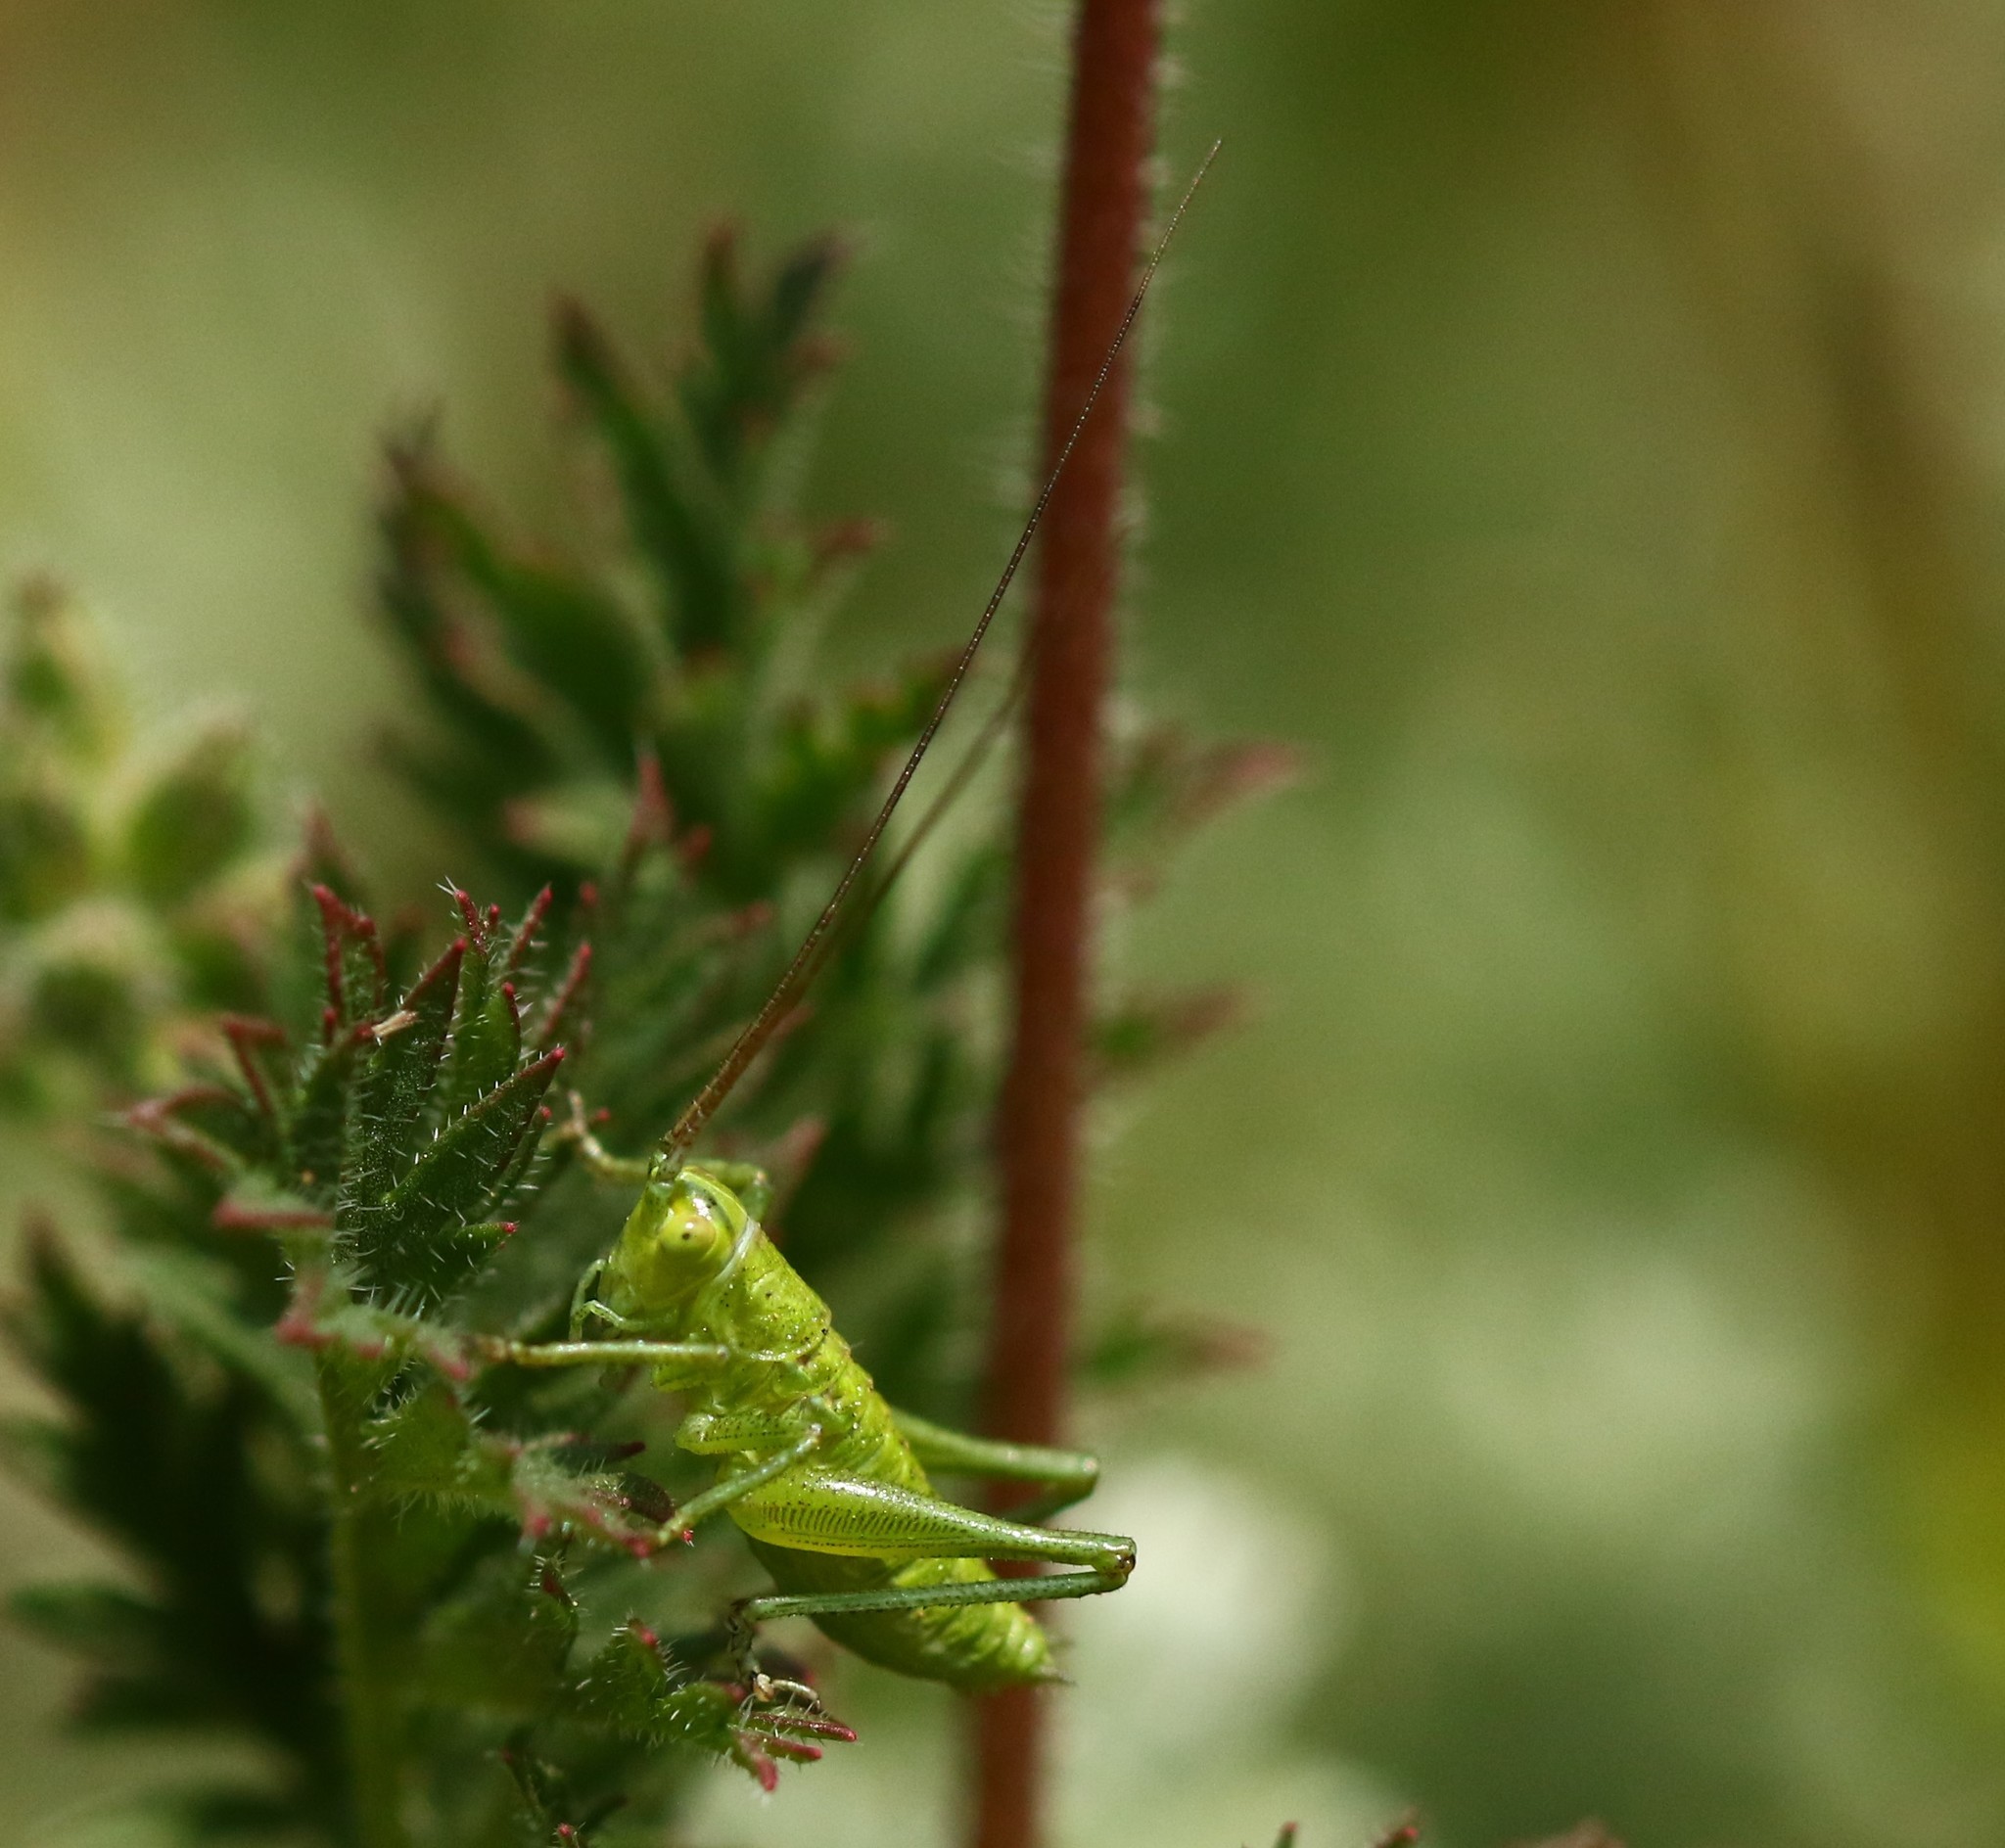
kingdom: Animalia
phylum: Arthropoda
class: Insecta
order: Orthoptera
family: Tettigoniidae
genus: Tettigonia
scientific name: Tettigonia viridissima
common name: Great green bush-cricket
